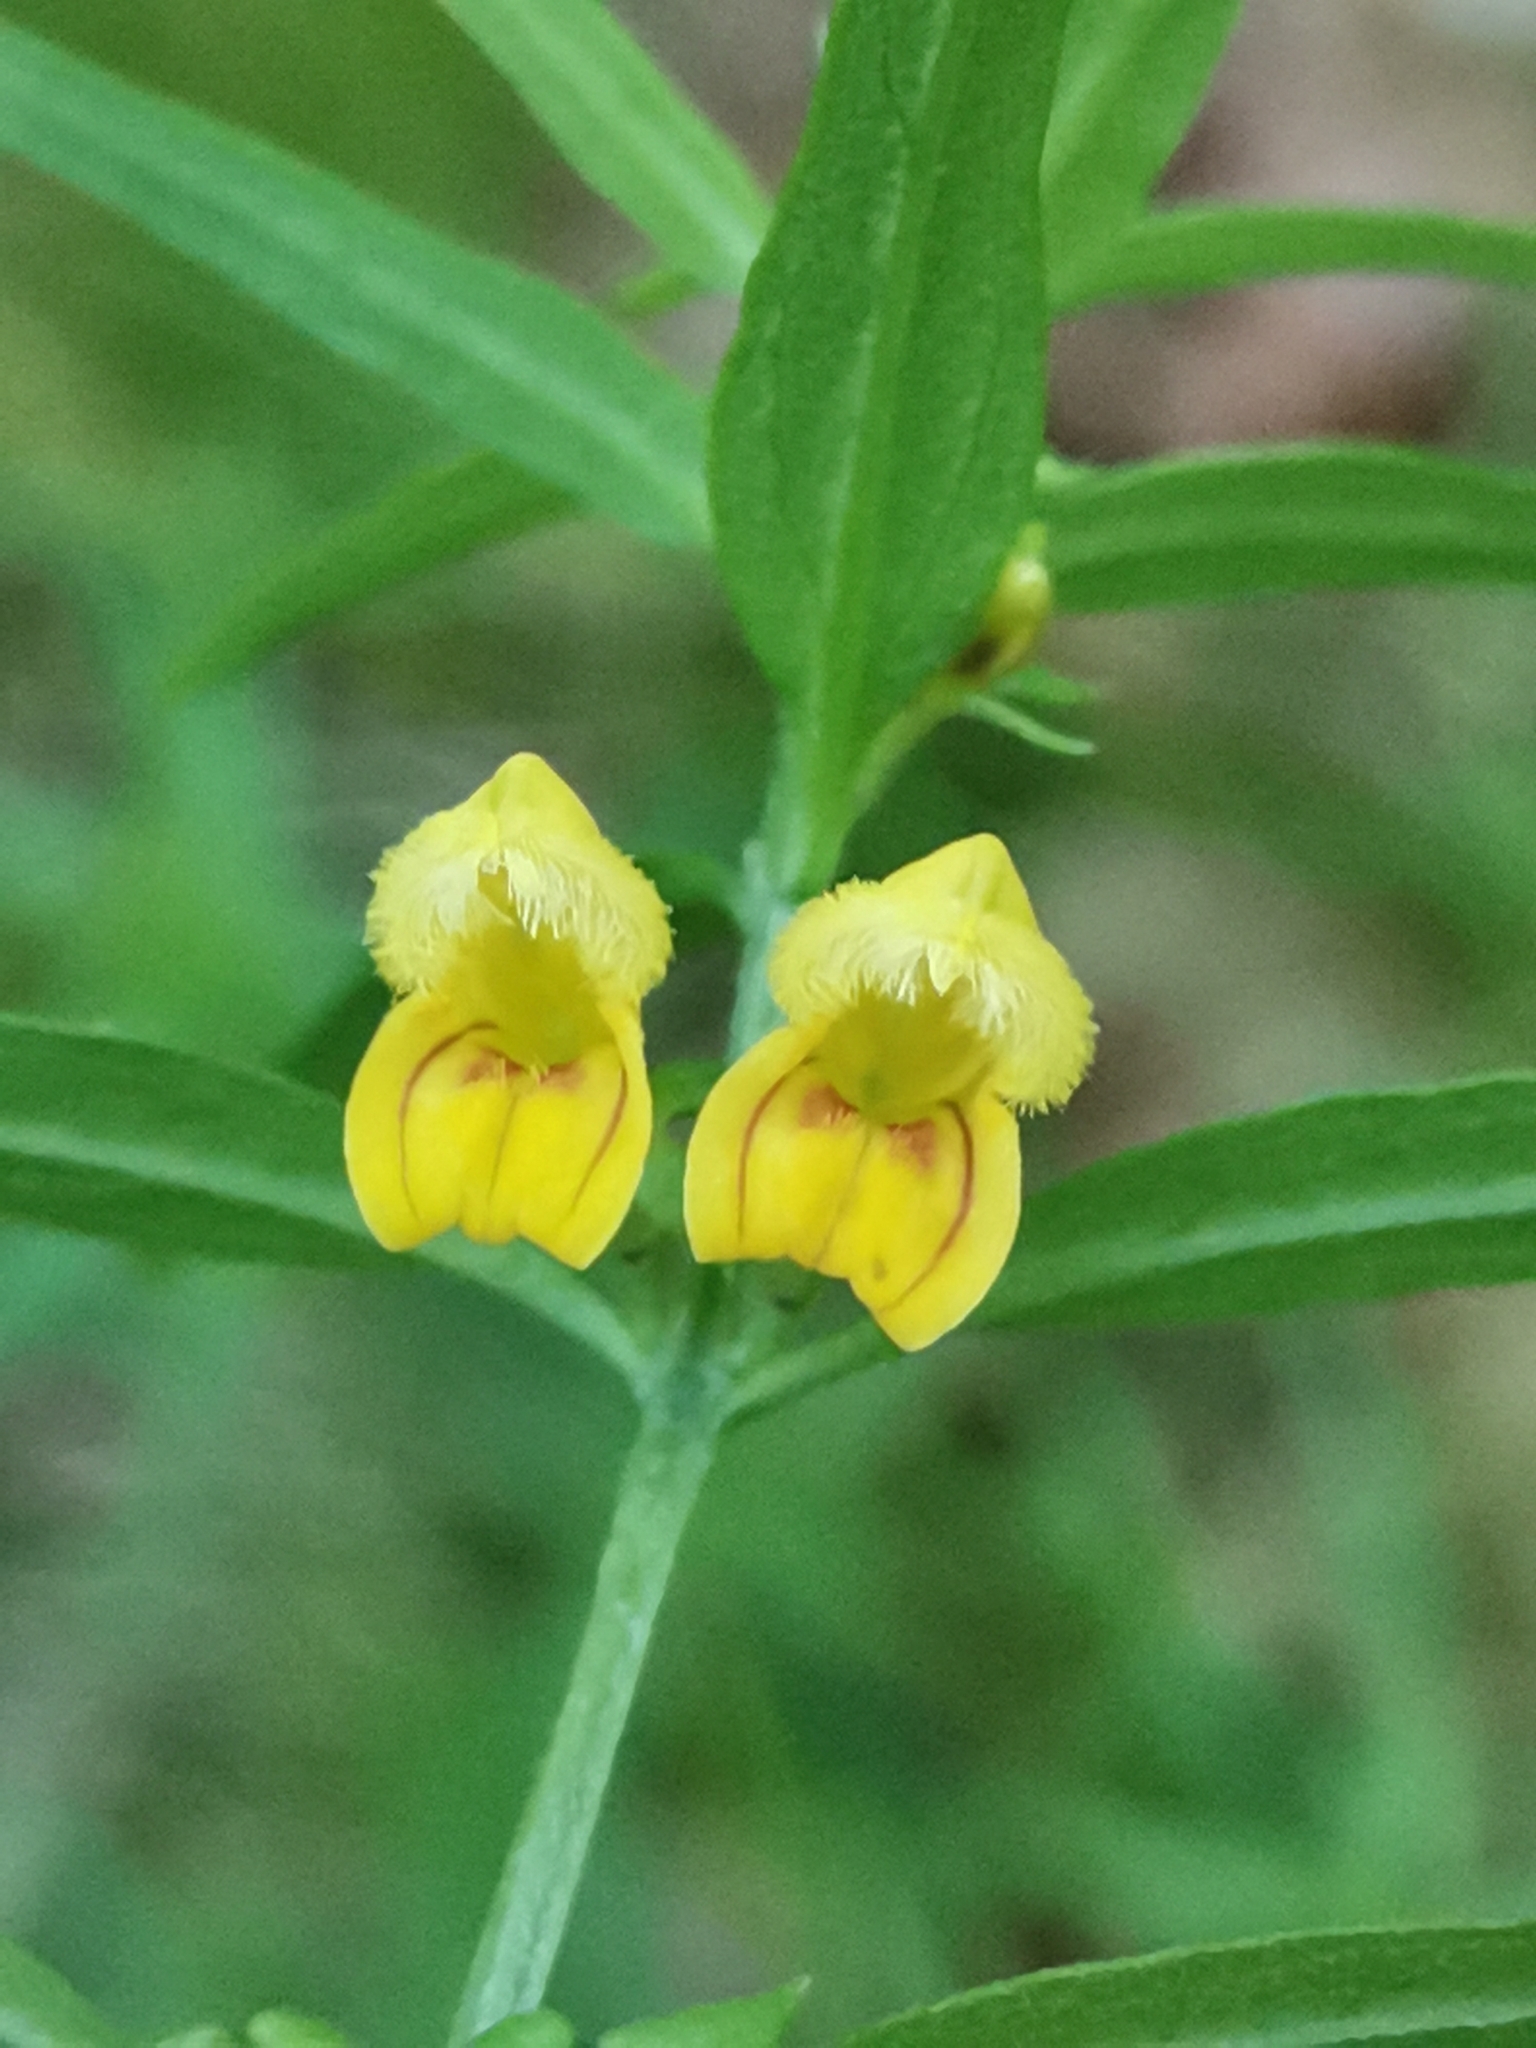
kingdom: Plantae
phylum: Tracheophyta
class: Magnoliopsida
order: Lamiales
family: Orobanchaceae
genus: Melampyrum
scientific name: Melampyrum sylvaticum
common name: Small cow-wheat
